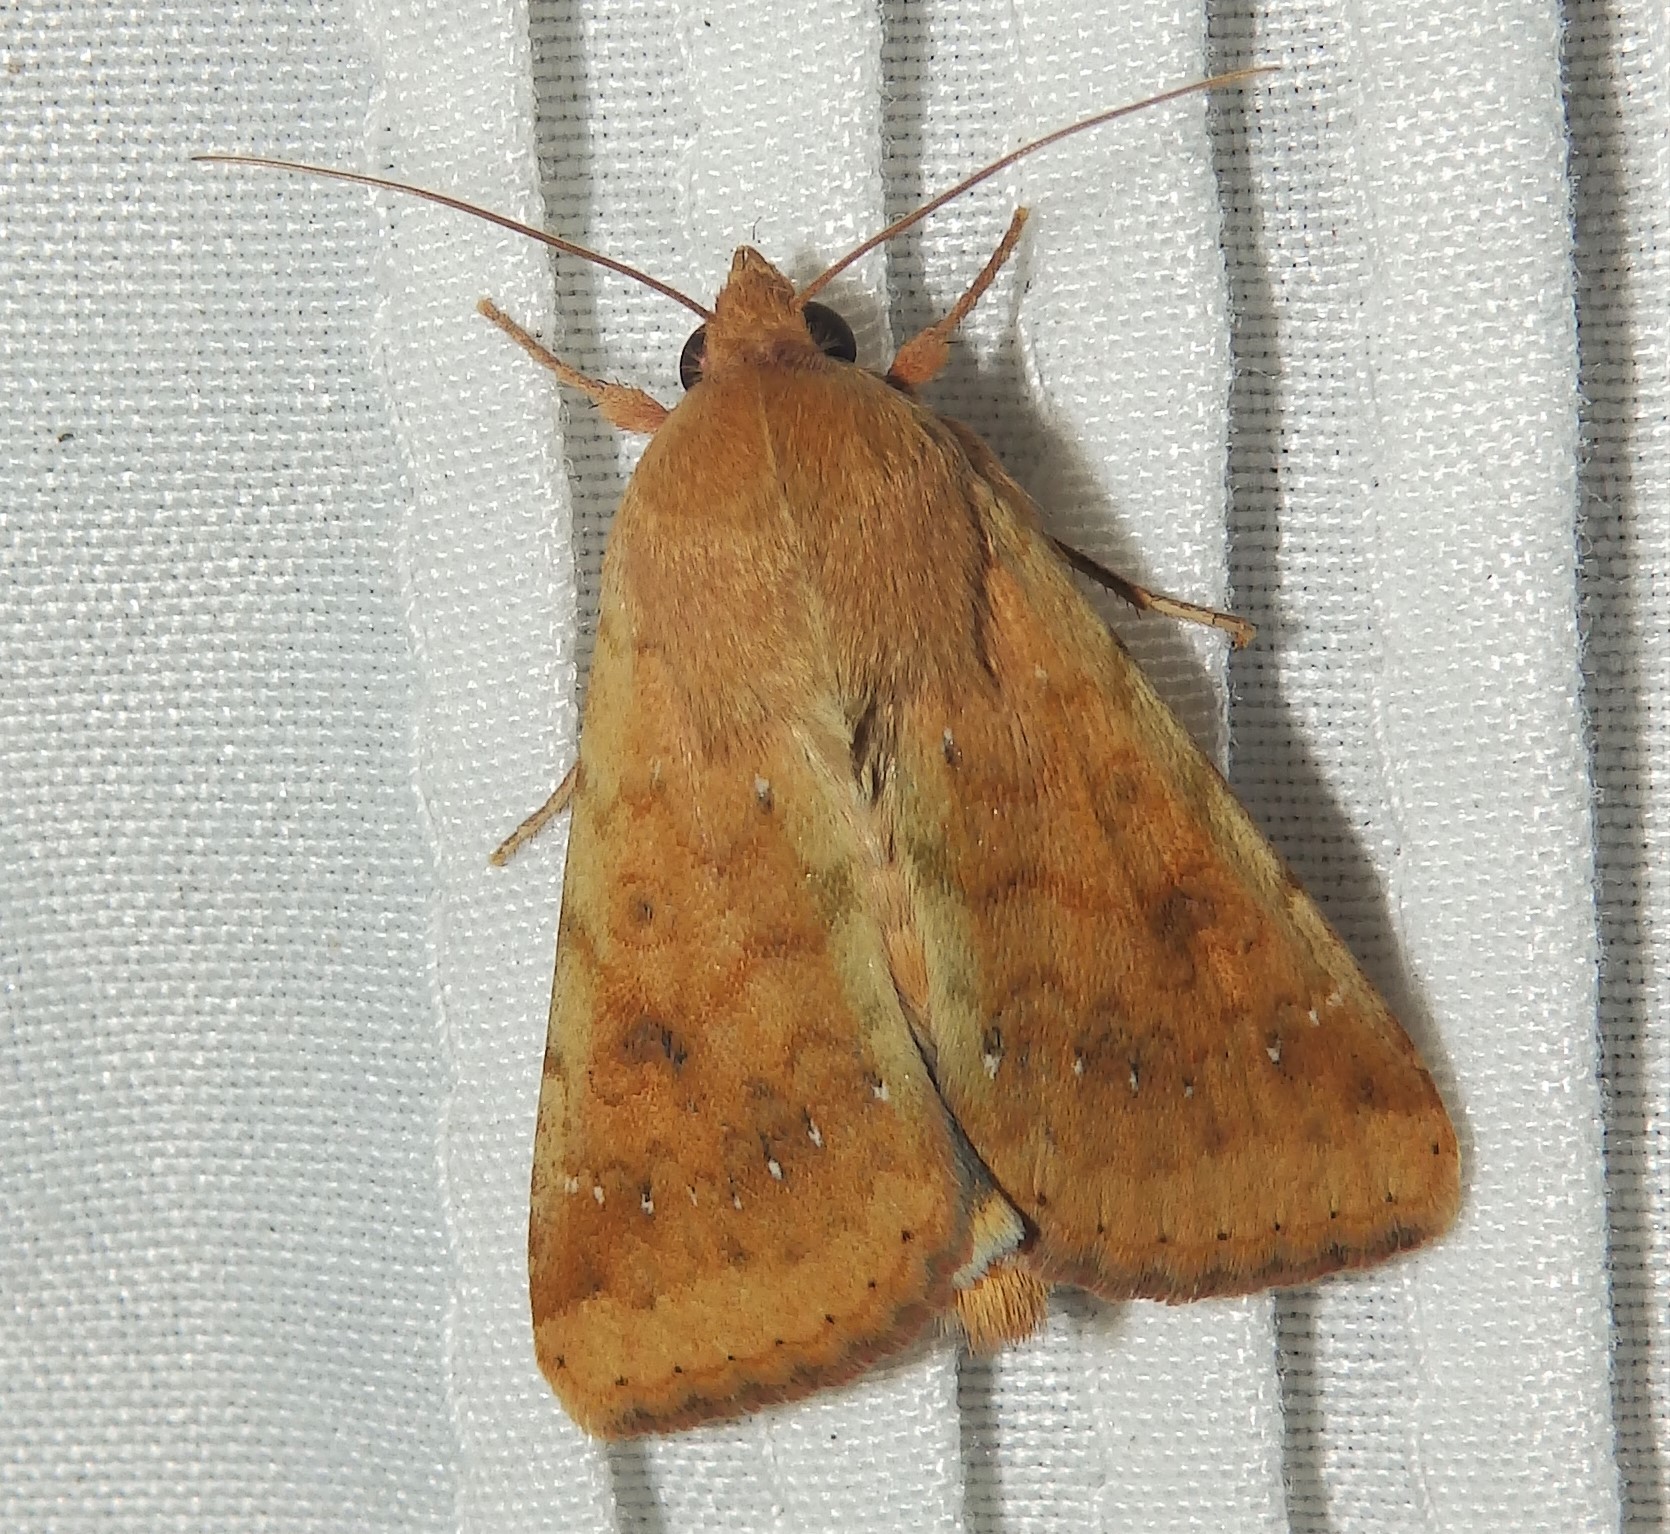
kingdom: Animalia
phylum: Arthropoda
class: Insecta
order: Lepidoptera
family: Noctuidae
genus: Helicoverpa
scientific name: Helicoverpa zea
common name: Bollworm
